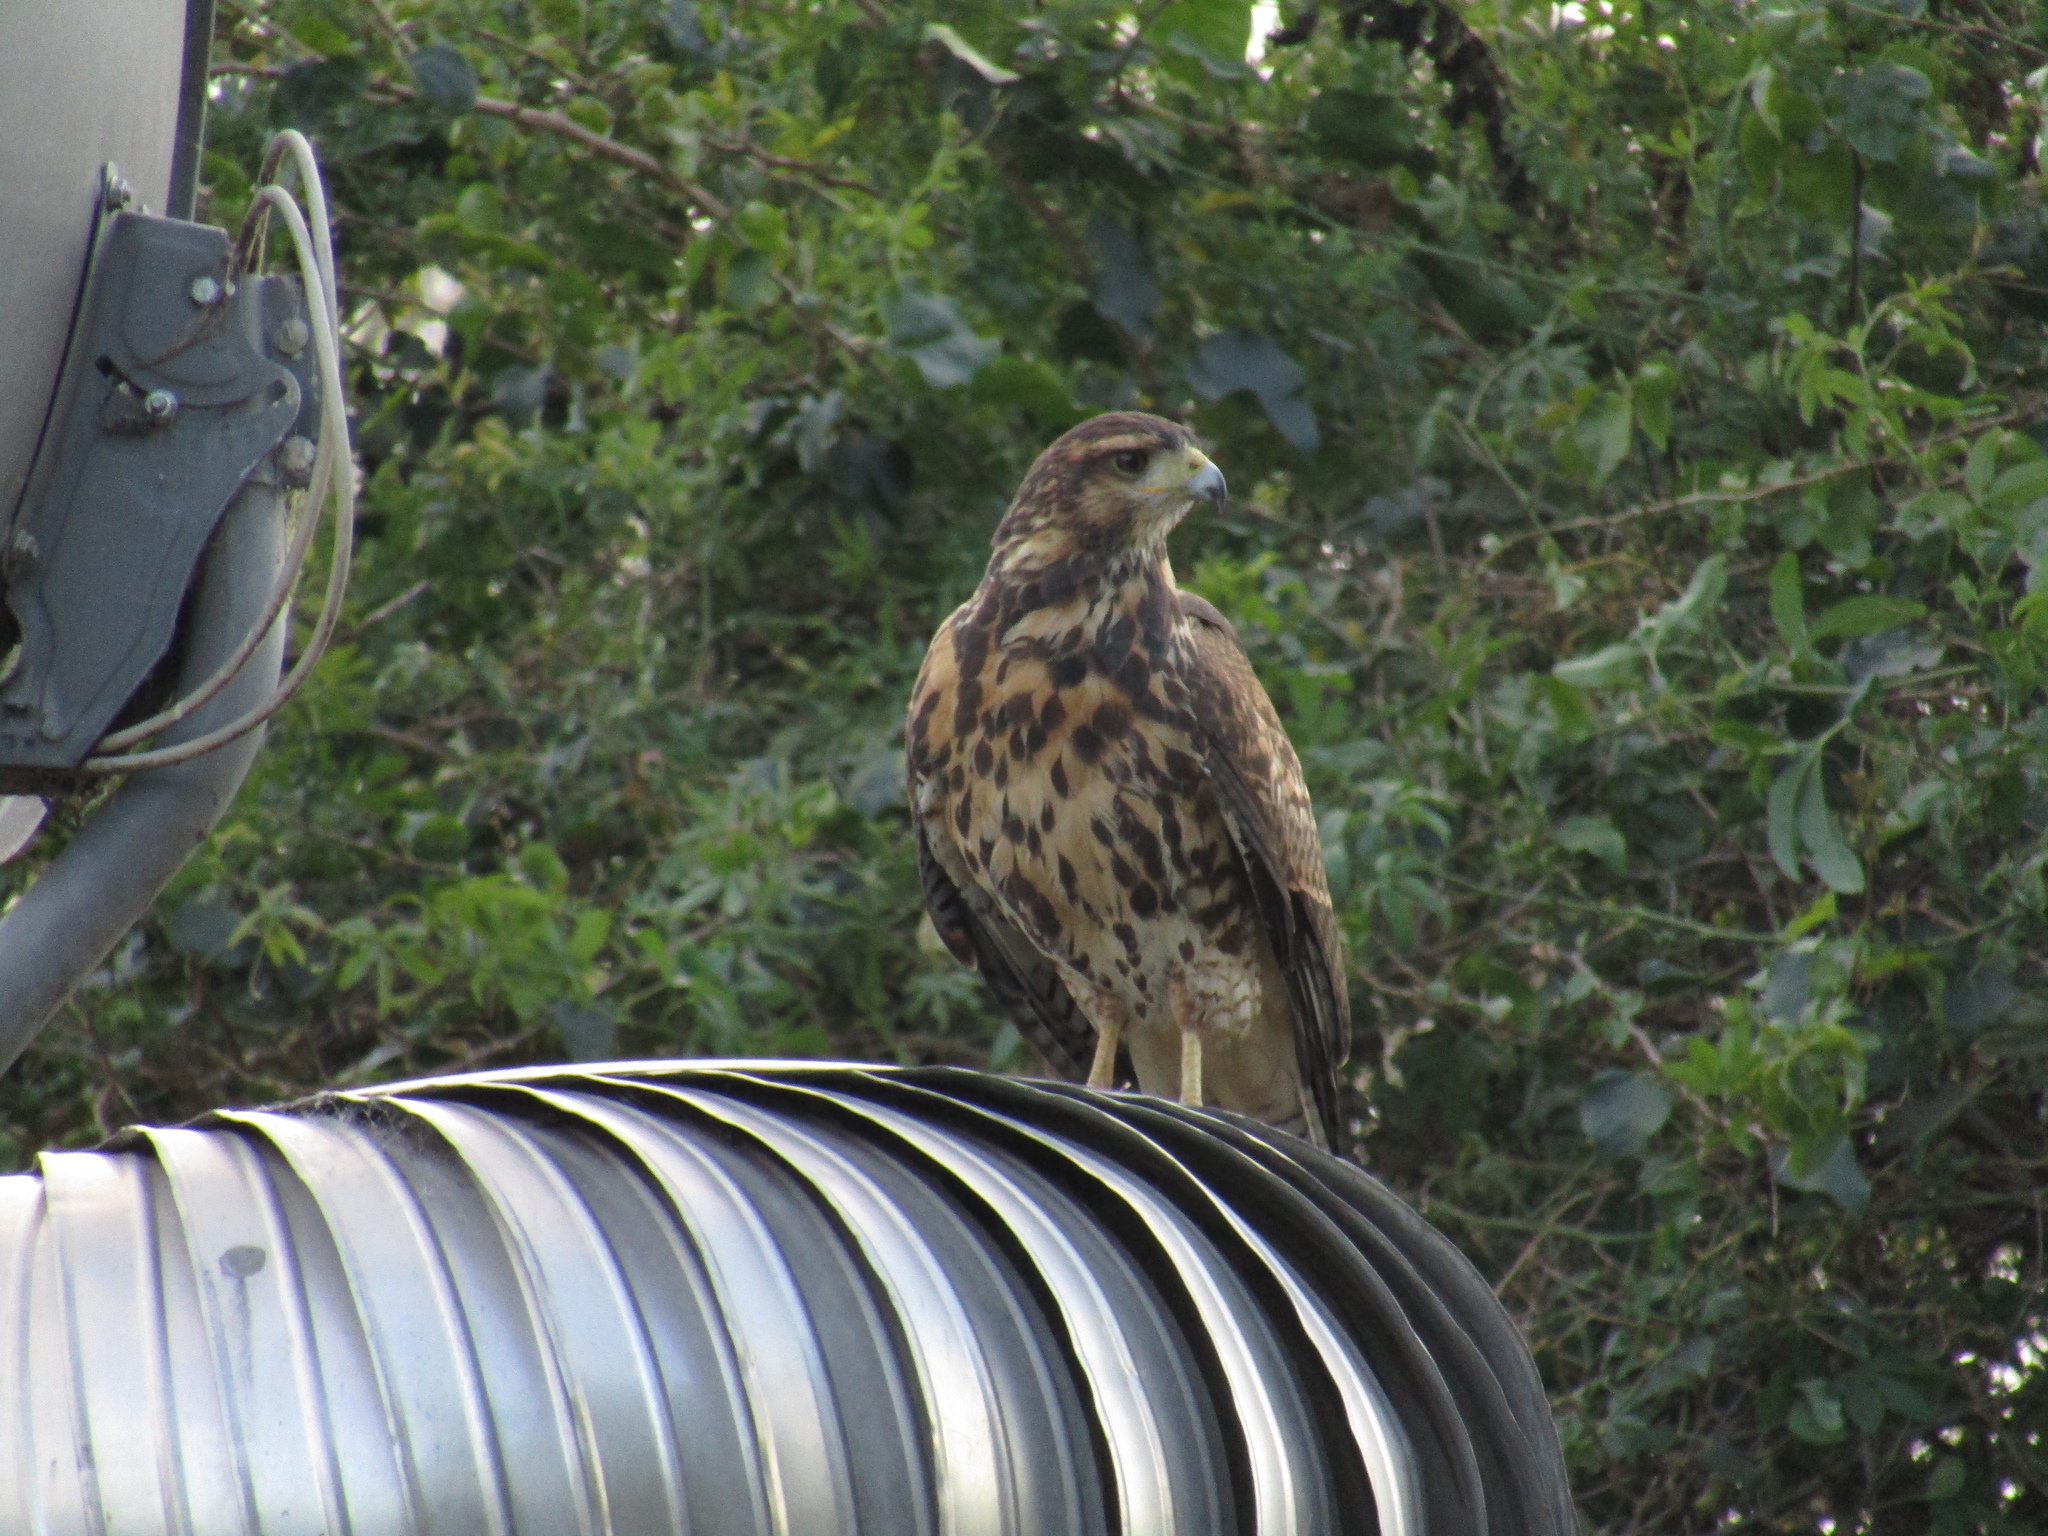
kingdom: Animalia
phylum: Chordata
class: Aves
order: Accipitriformes
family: Accipitridae
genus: Parabuteo
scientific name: Parabuteo unicinctus
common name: Harris's hawk
